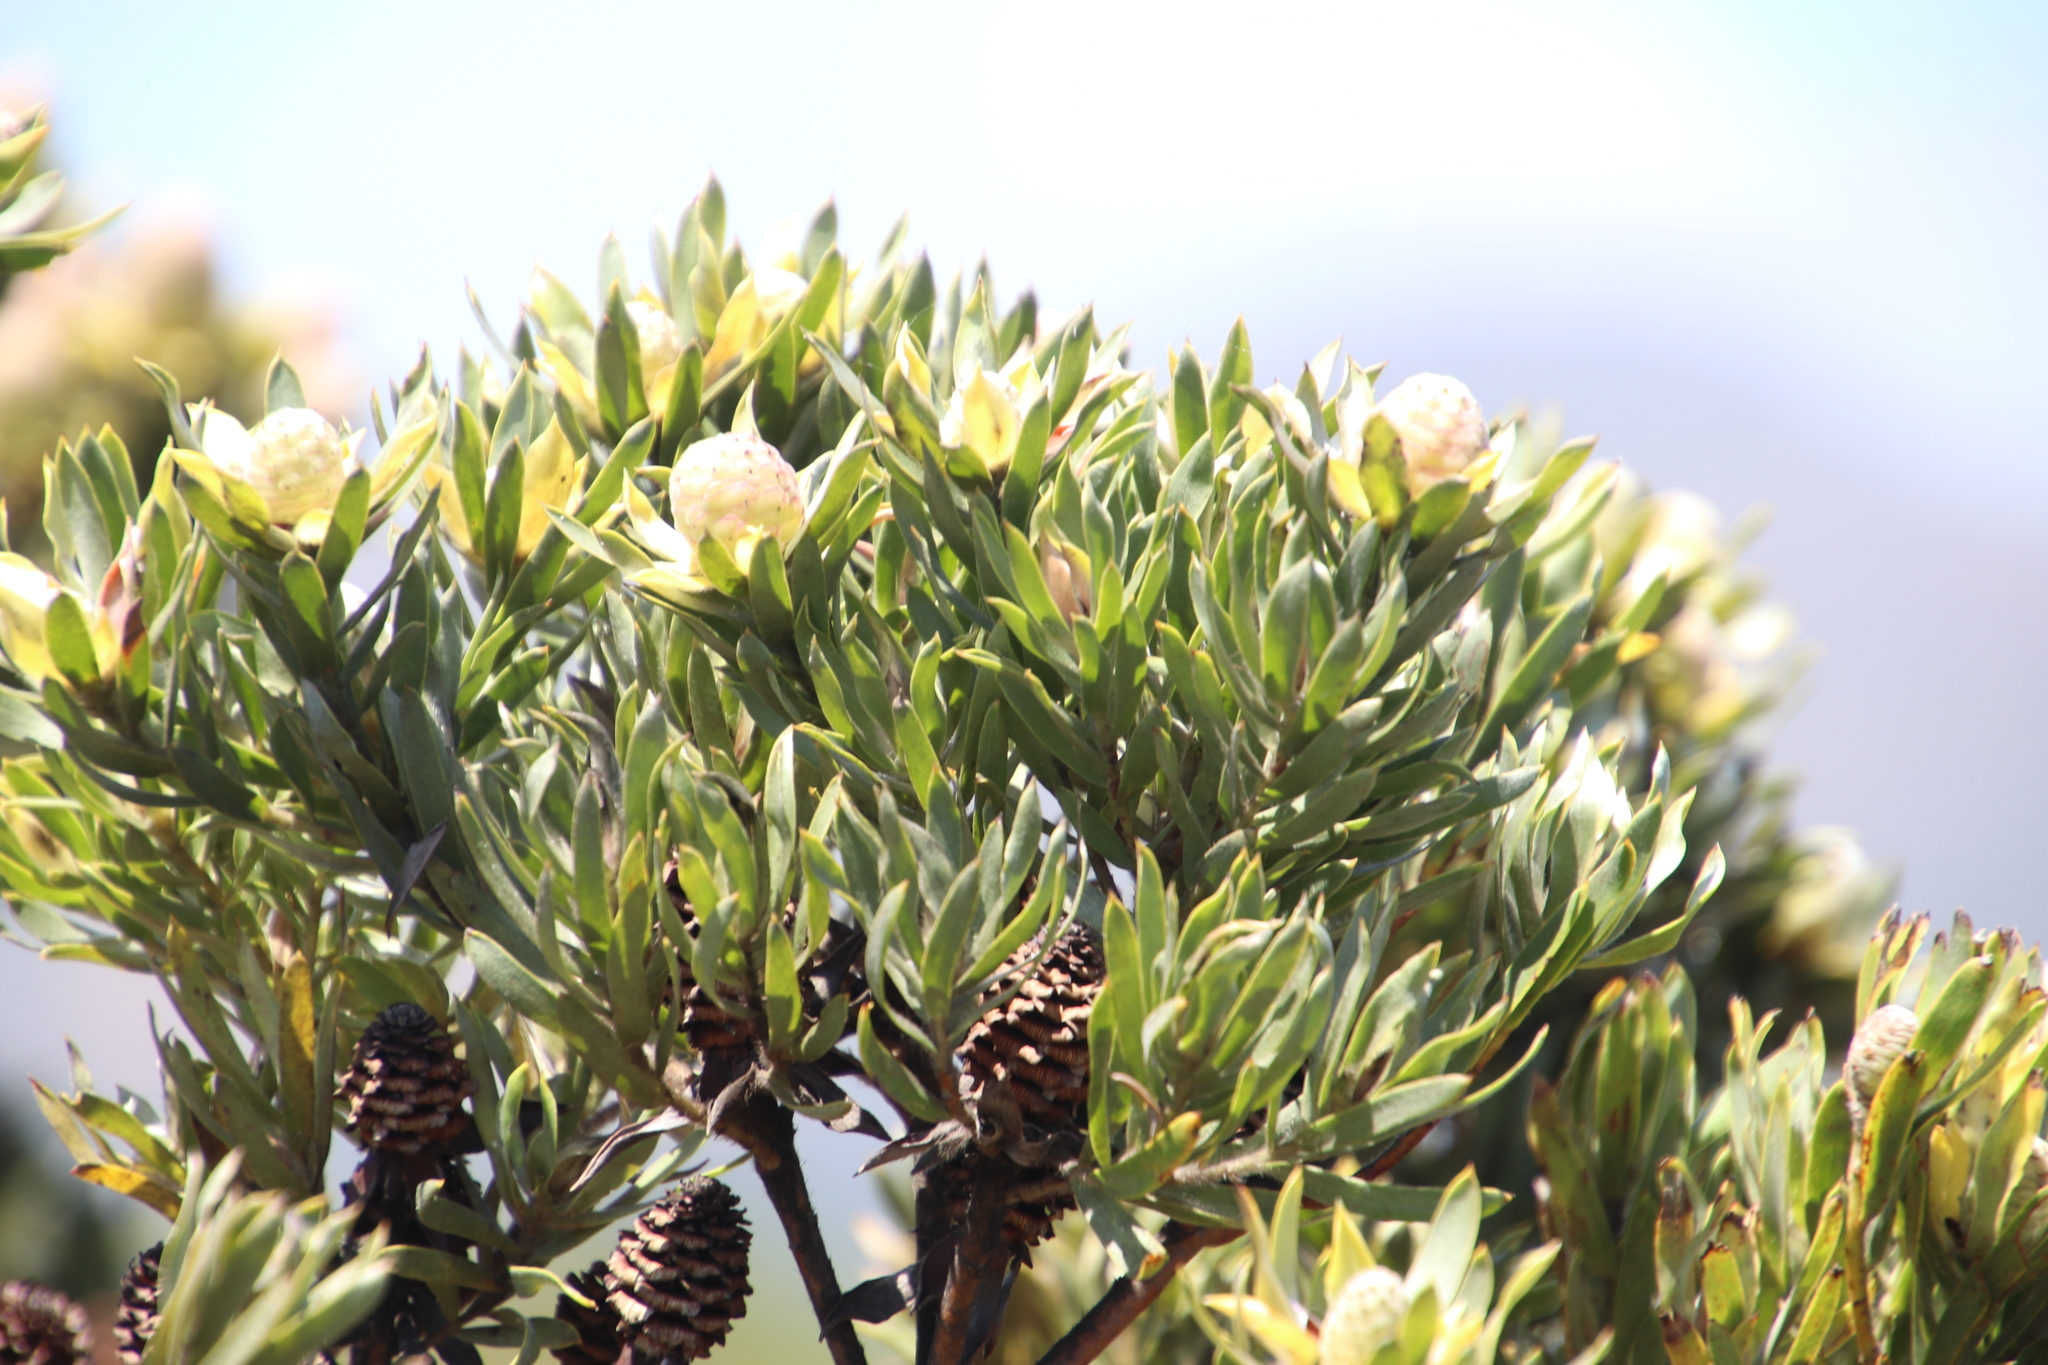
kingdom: Plantae
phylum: Tracheophyta
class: Magnoliopsida
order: Proteales
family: Proteaceae
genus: Leucadendron
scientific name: Leucadendron floridum
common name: Flats conebush
